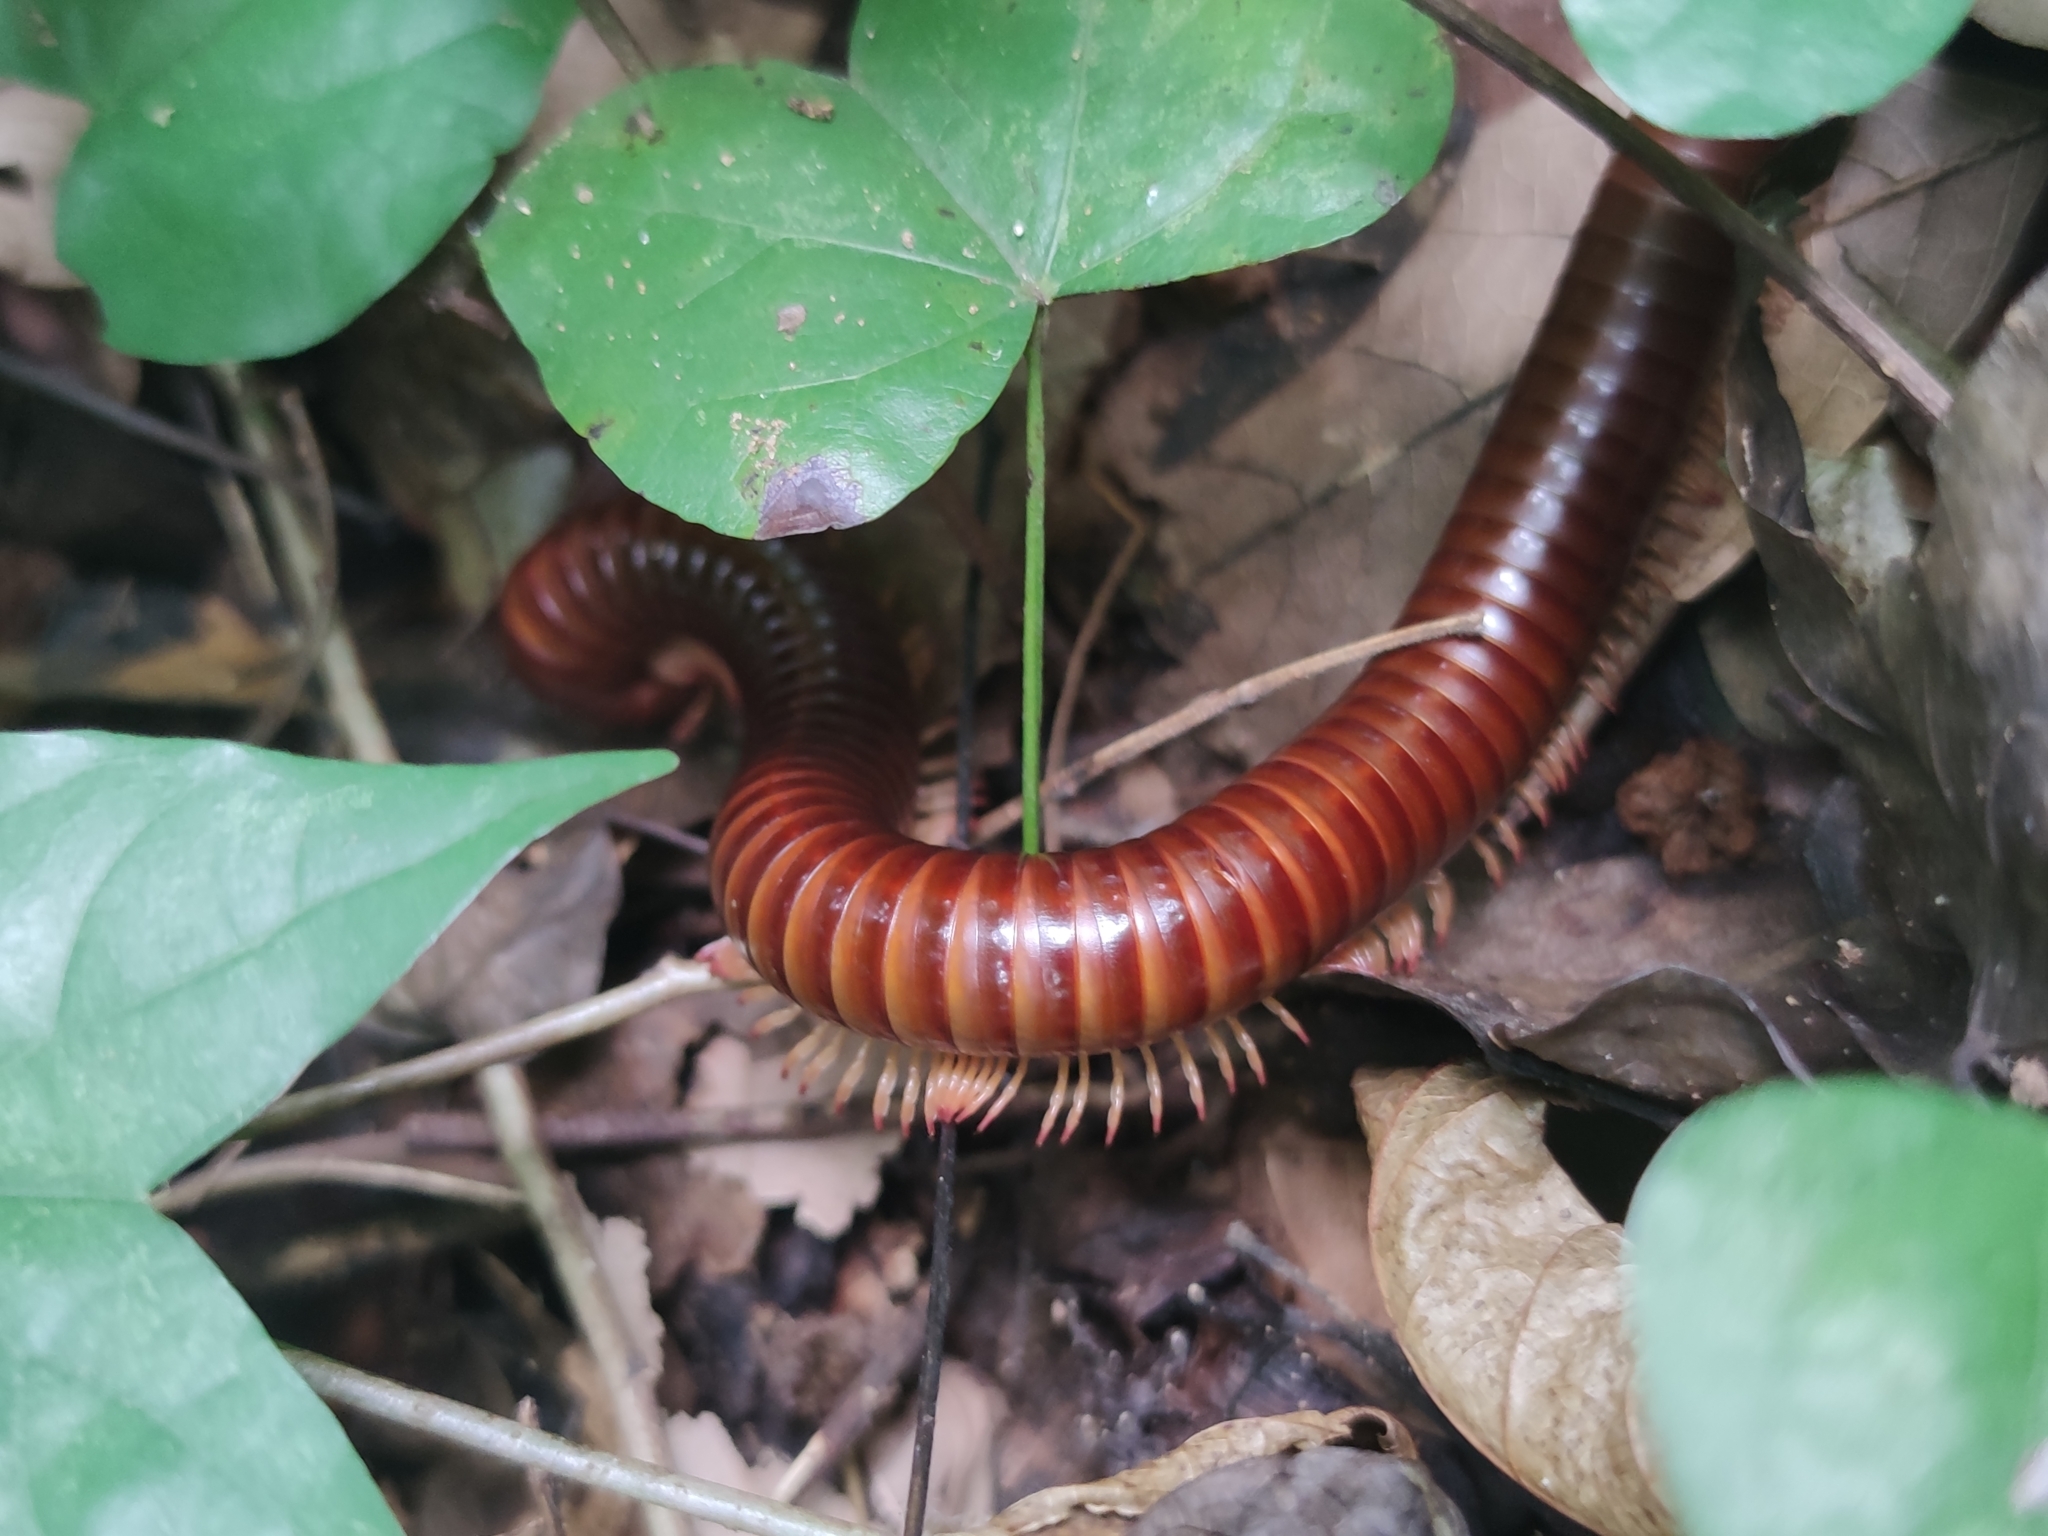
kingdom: Animalia
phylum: Arthropoda
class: Diplopoda
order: Spirobolida
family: Pachybolidae
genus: Trigoniulus
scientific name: Trigoniulus corallinus
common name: Millipede
